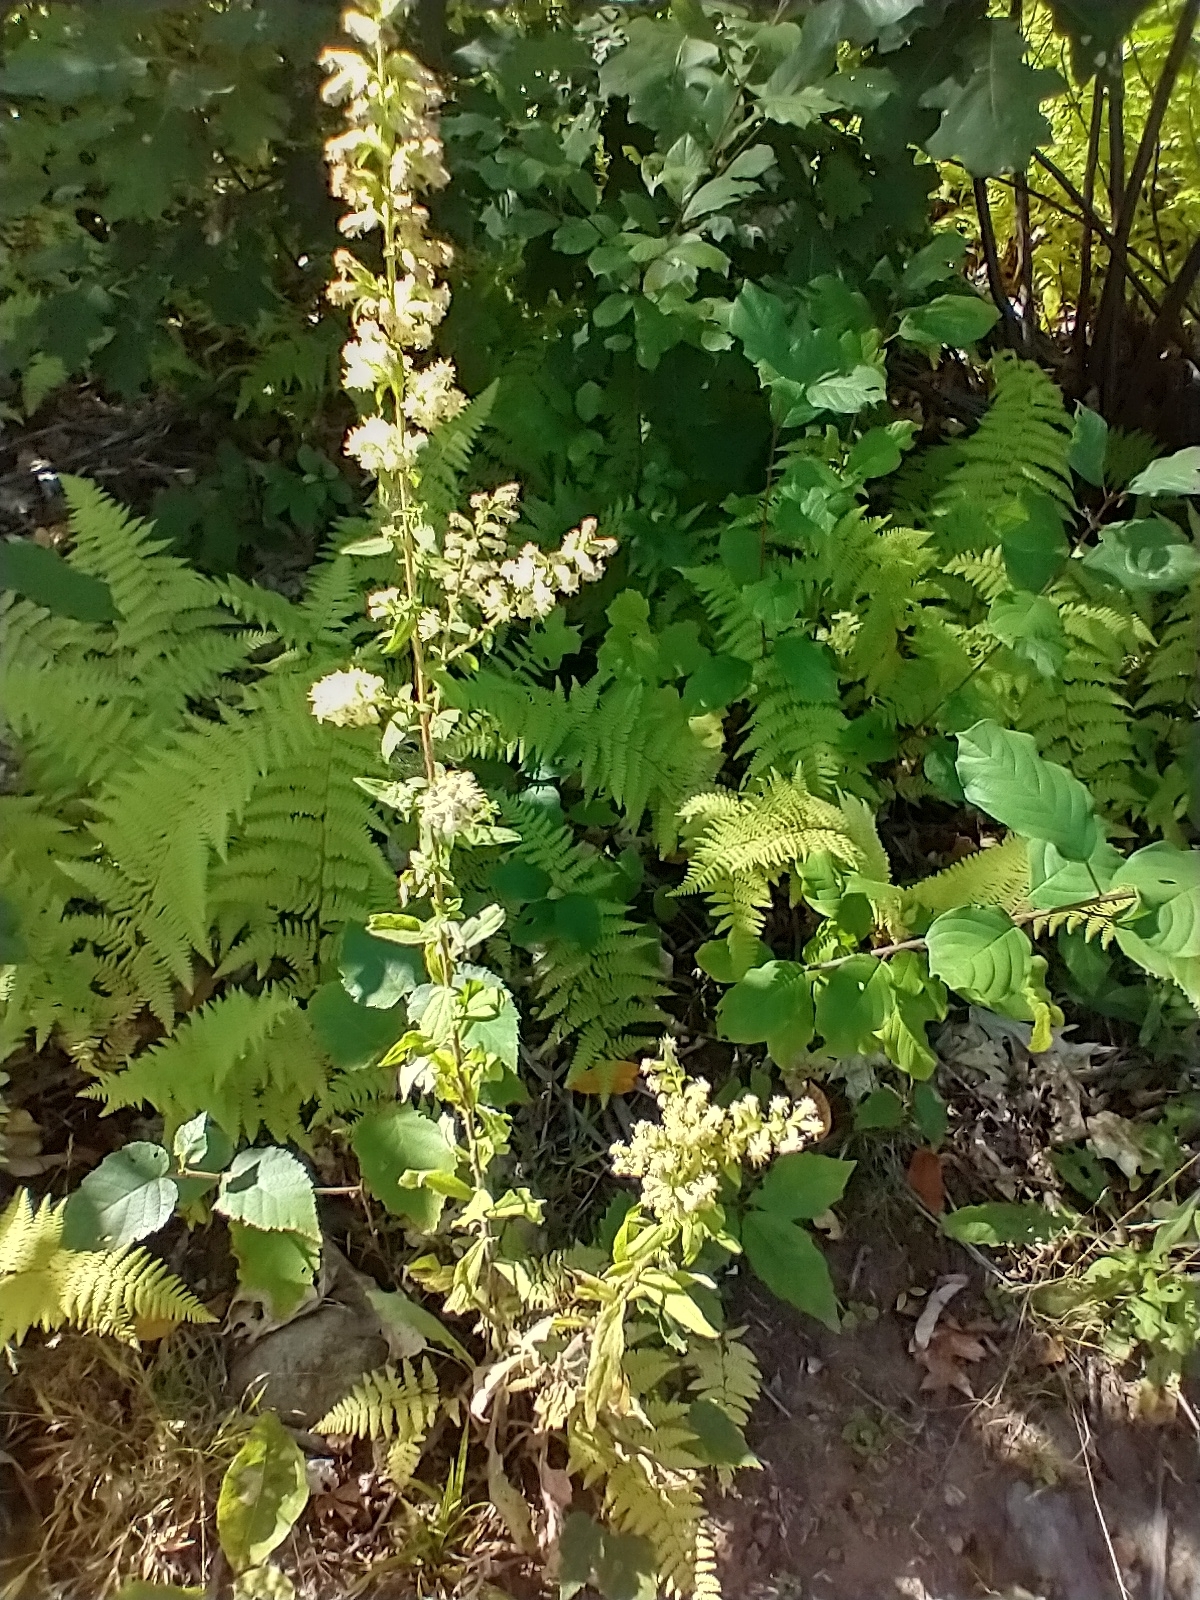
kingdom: Plantae
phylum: Tracheophyta
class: Magnoliopsida
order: Asterales
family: Asteraceae
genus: Solidago
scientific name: Solidago bicolor
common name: Silverrod
